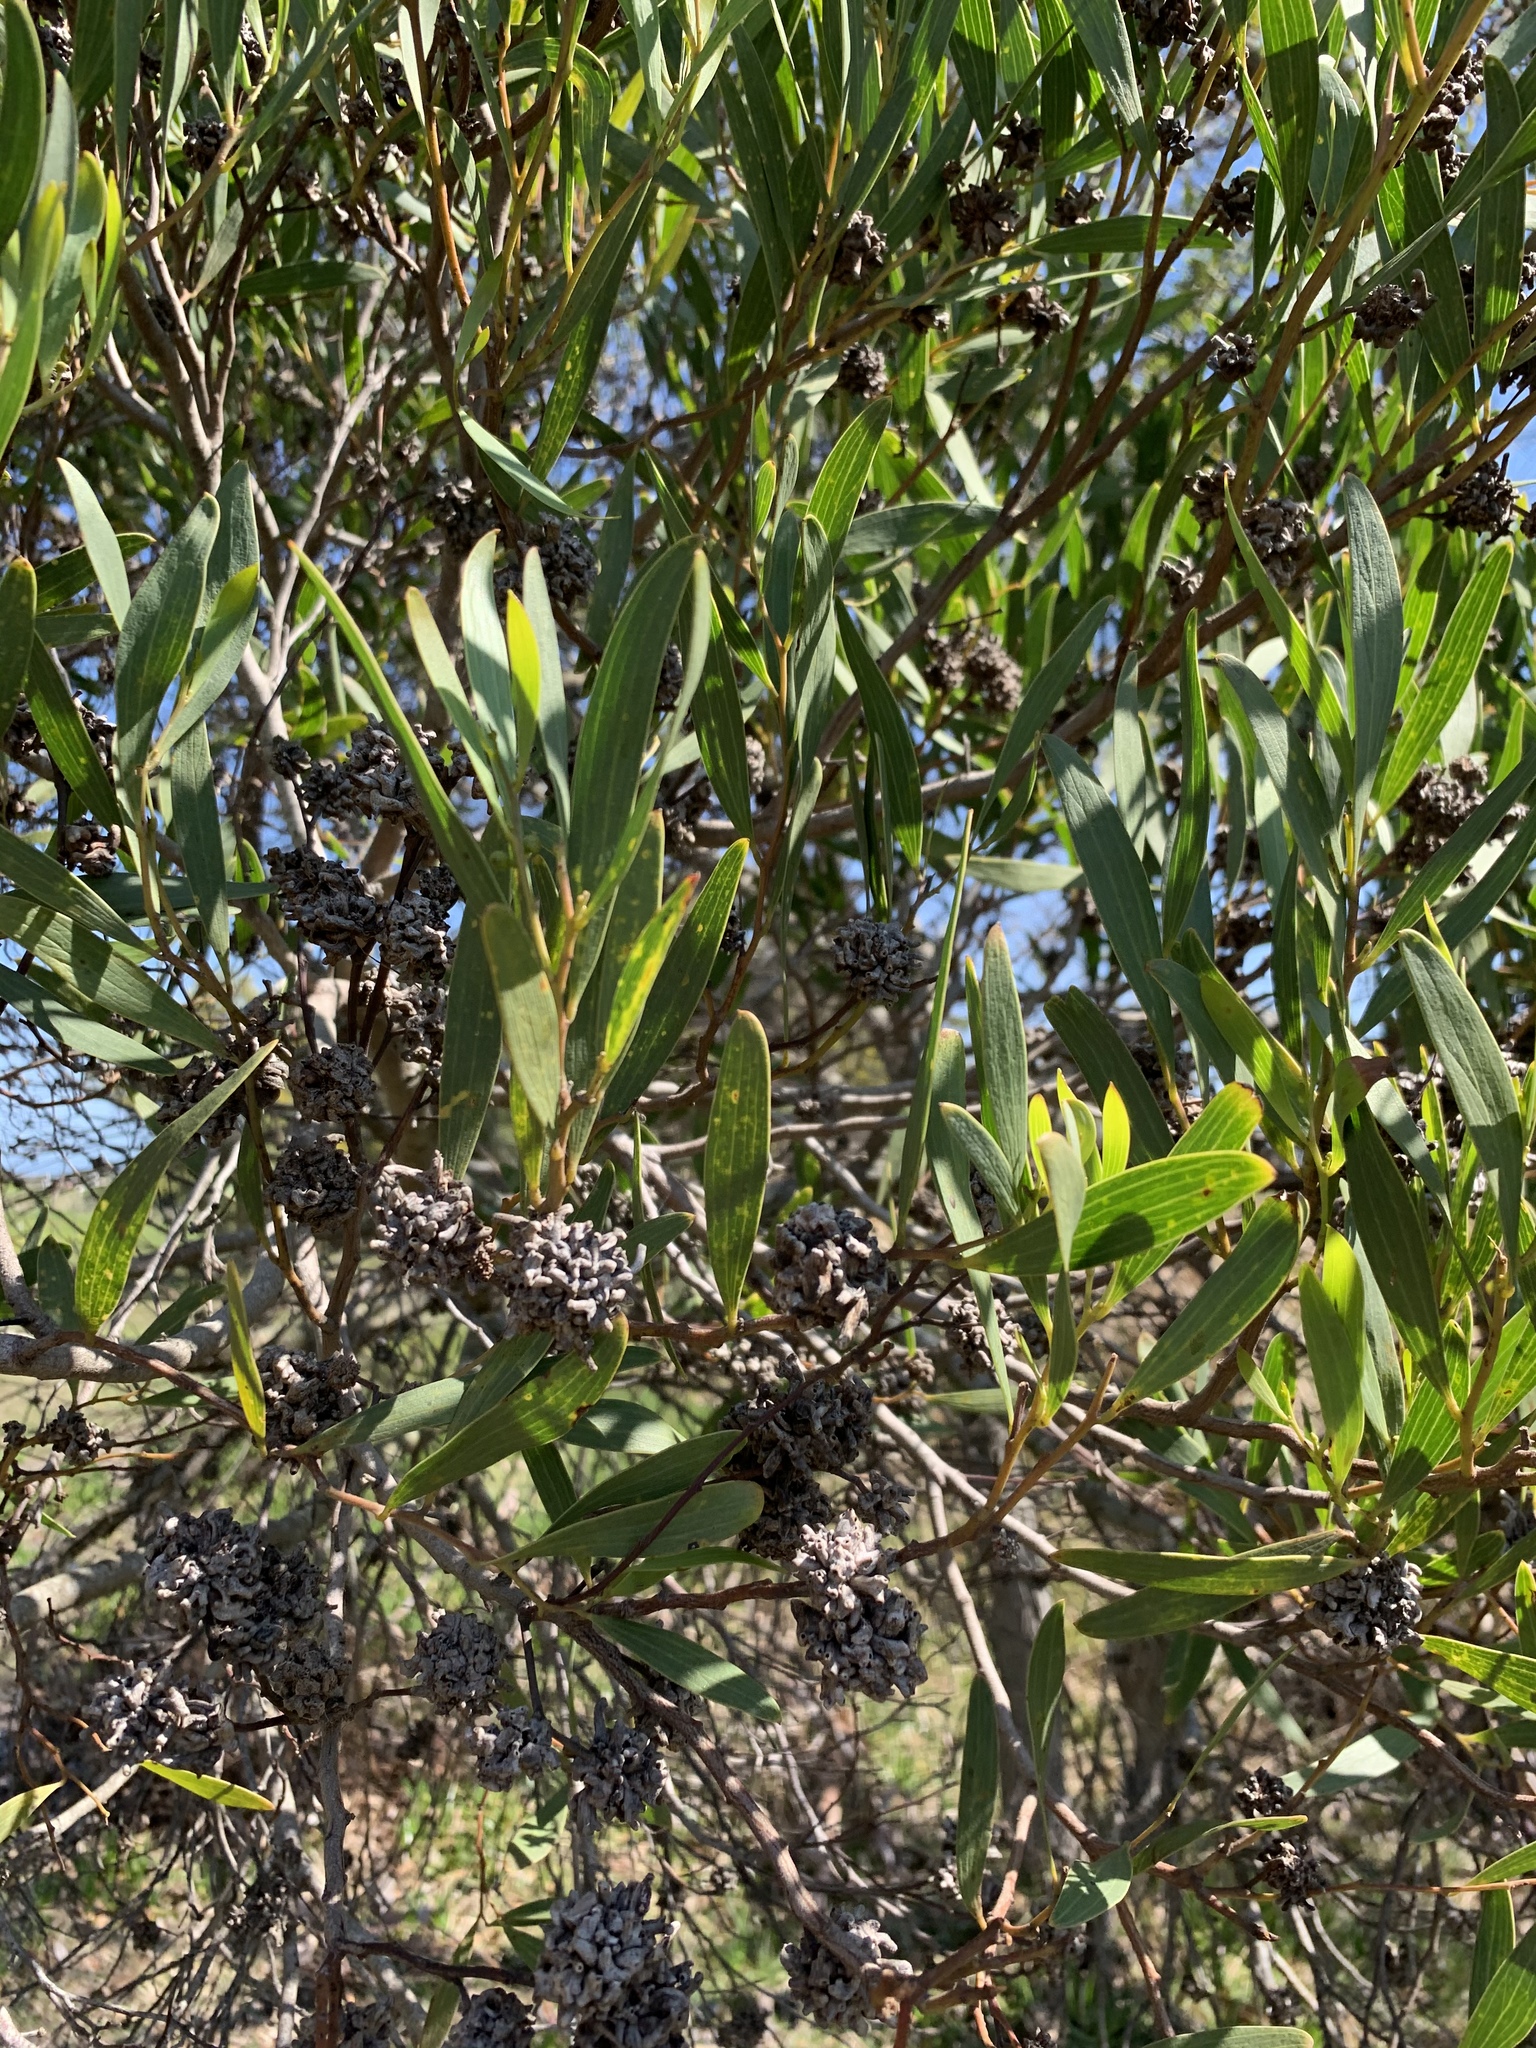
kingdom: Plantae
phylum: Tracheophyta
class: Magnoliopsida
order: Fabales
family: Fabaceae
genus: Acacia
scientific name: Acacia cyclops
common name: Coastal wattle
